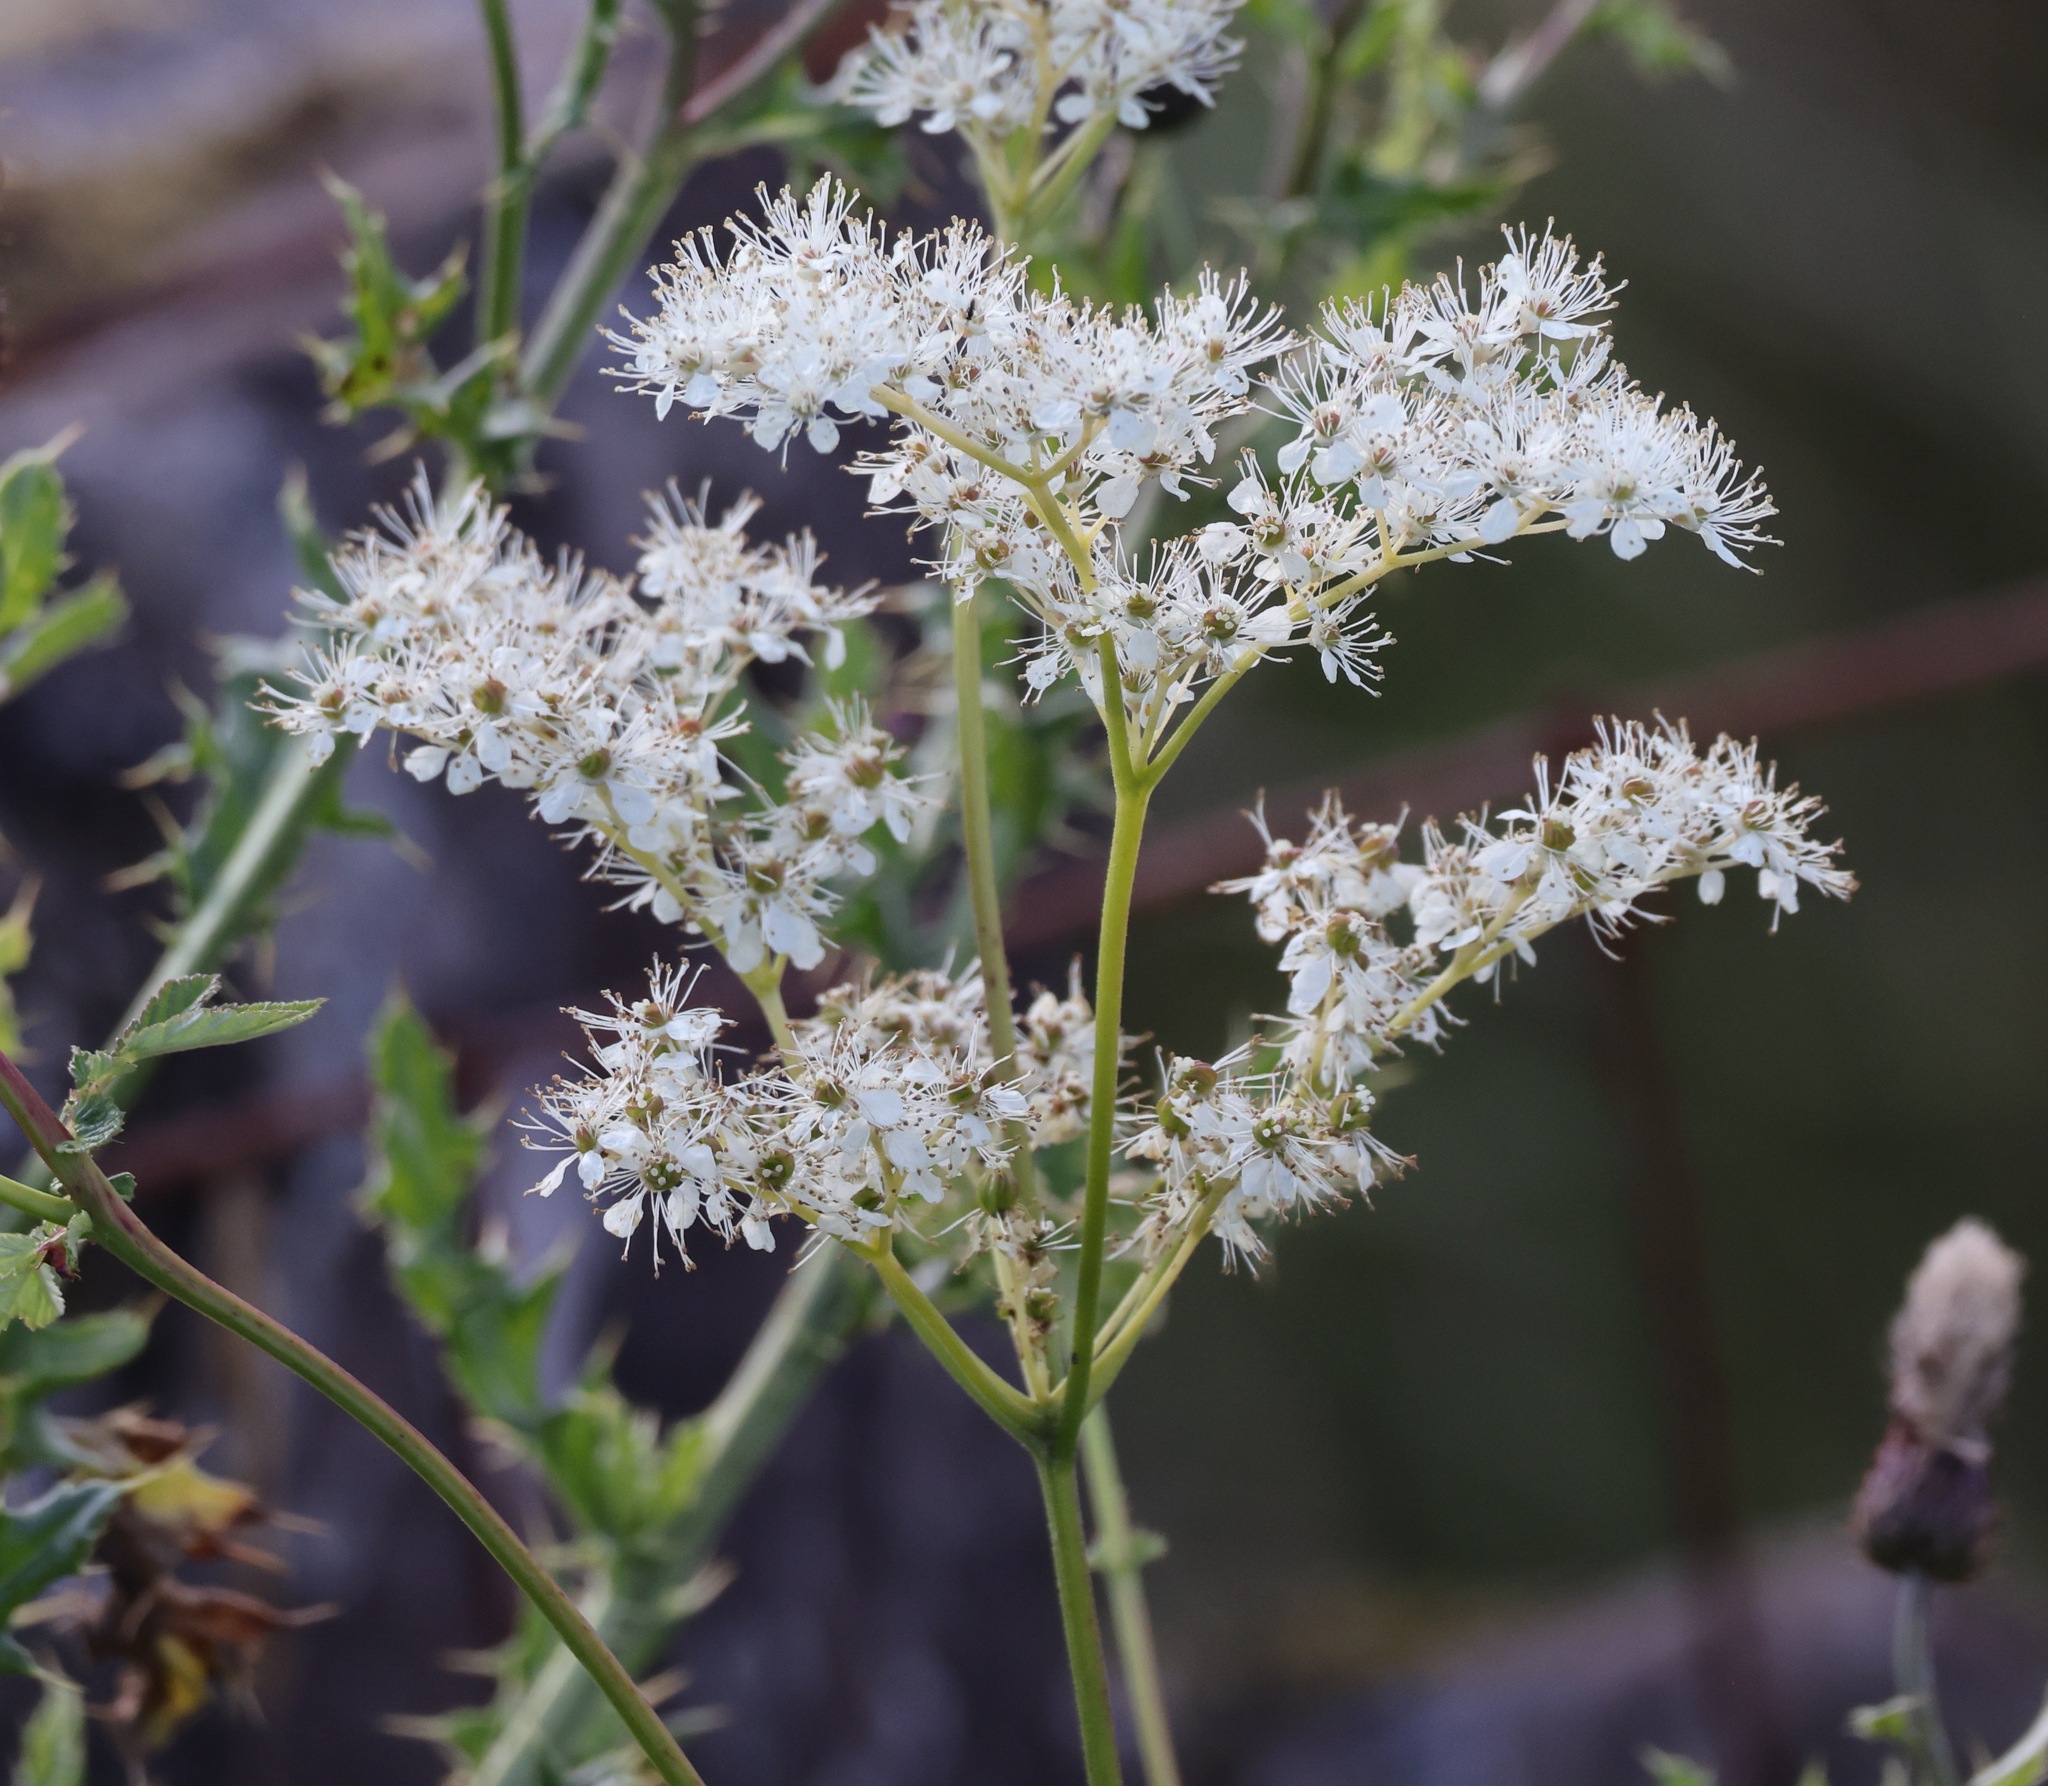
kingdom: Plantae
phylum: Tracheophyta
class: Magnoliopsida
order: Rosales
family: Rosaceae
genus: Filipendula
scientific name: Filipendula ulmaria
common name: Meadowsweet
